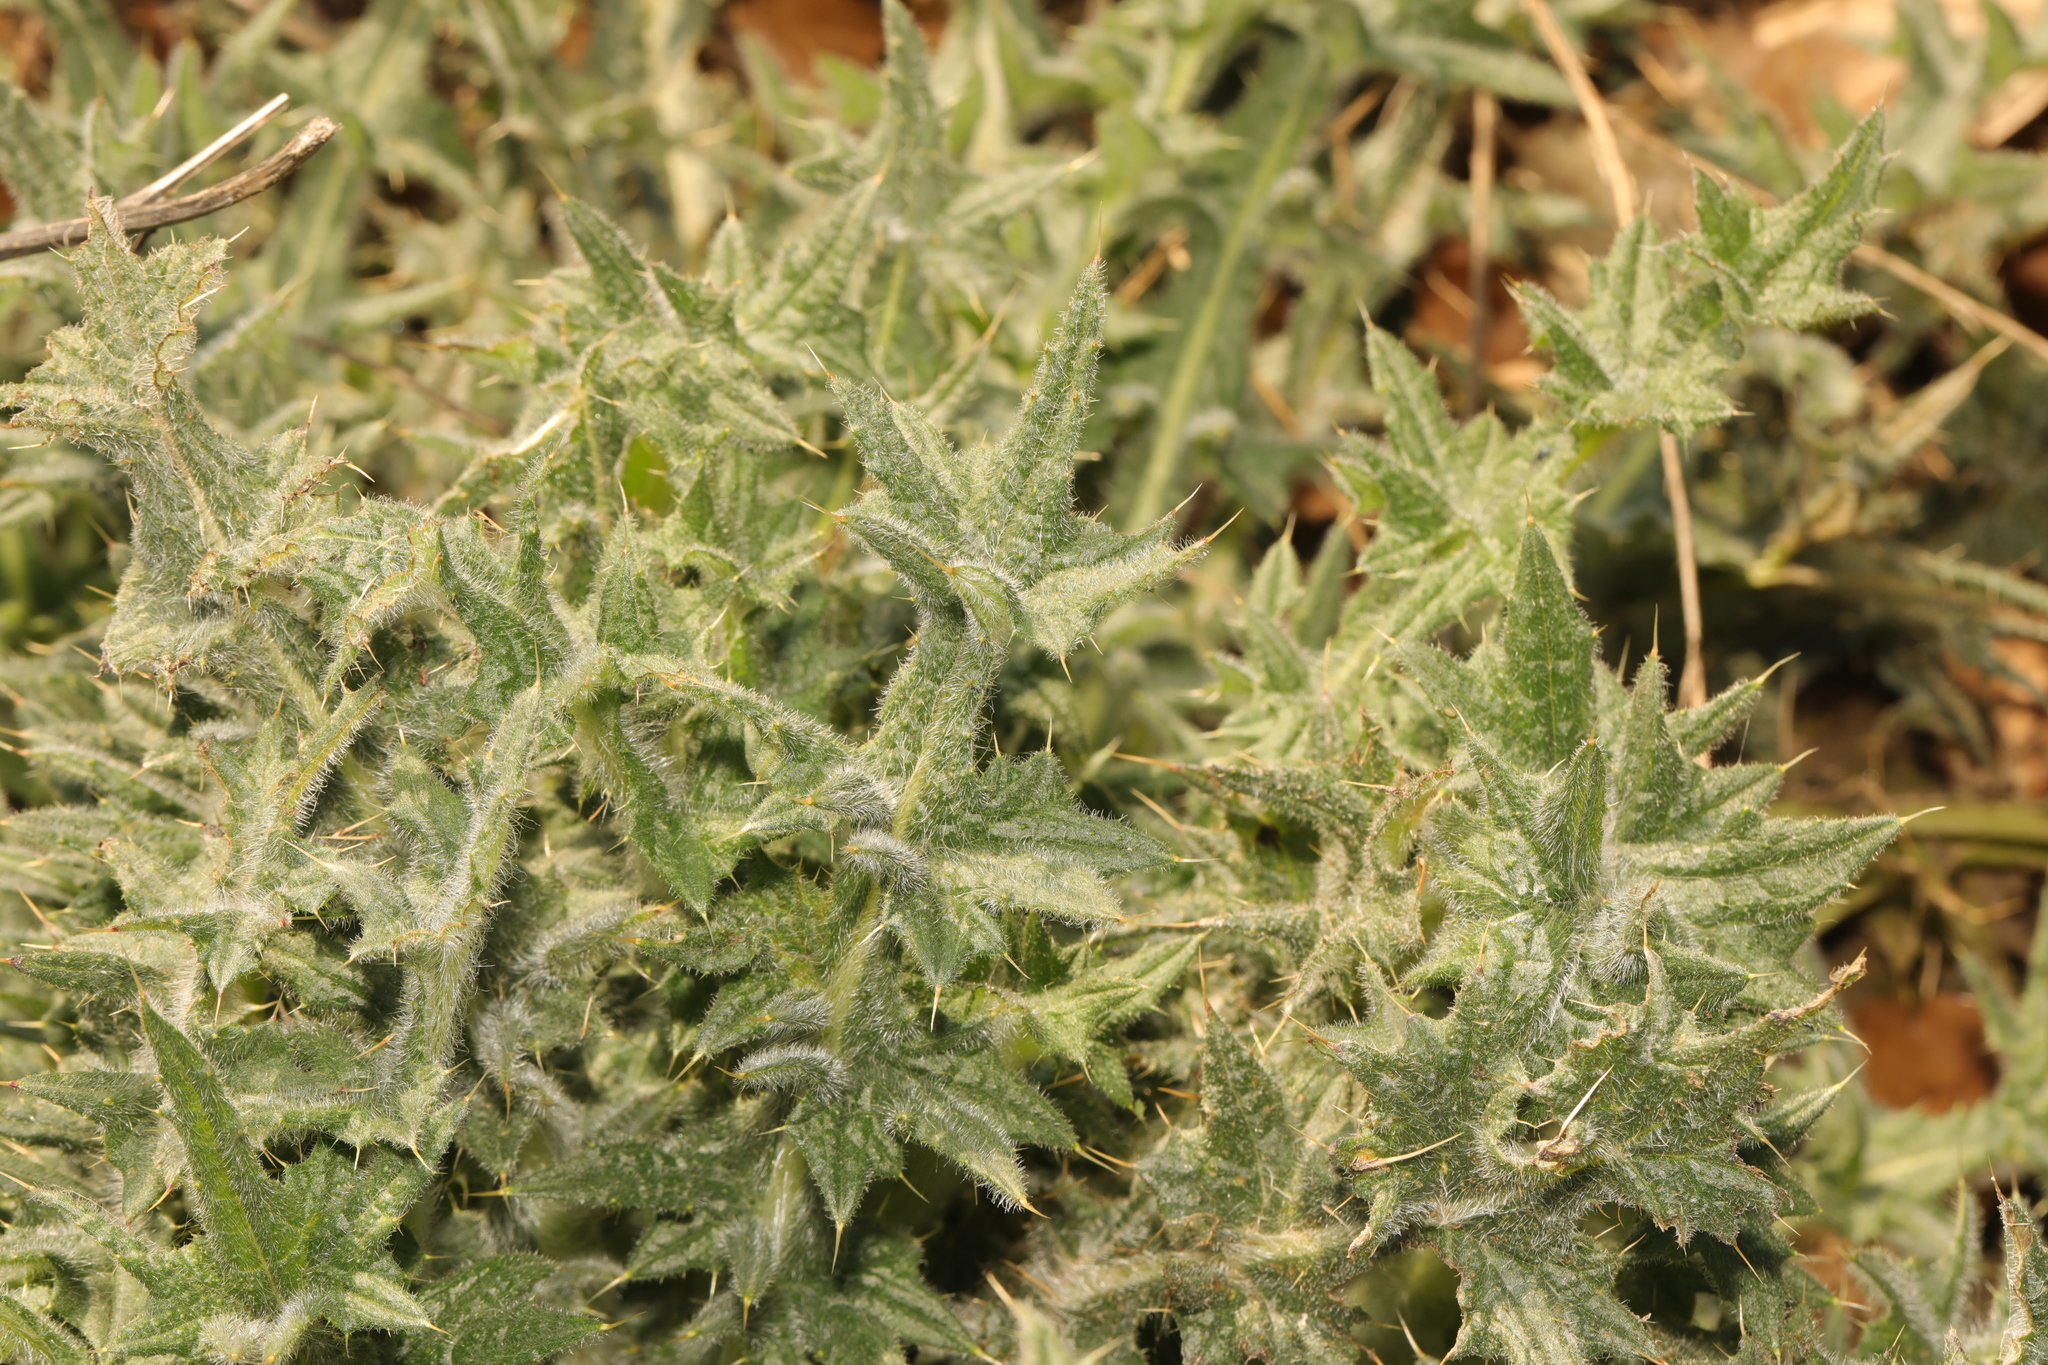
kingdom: Plantae
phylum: Tracheophyta
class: Magnoliopsida
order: Asterales
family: Asteraceae
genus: Cirsium
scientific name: Cirsium vulgare
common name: Bull thistle
